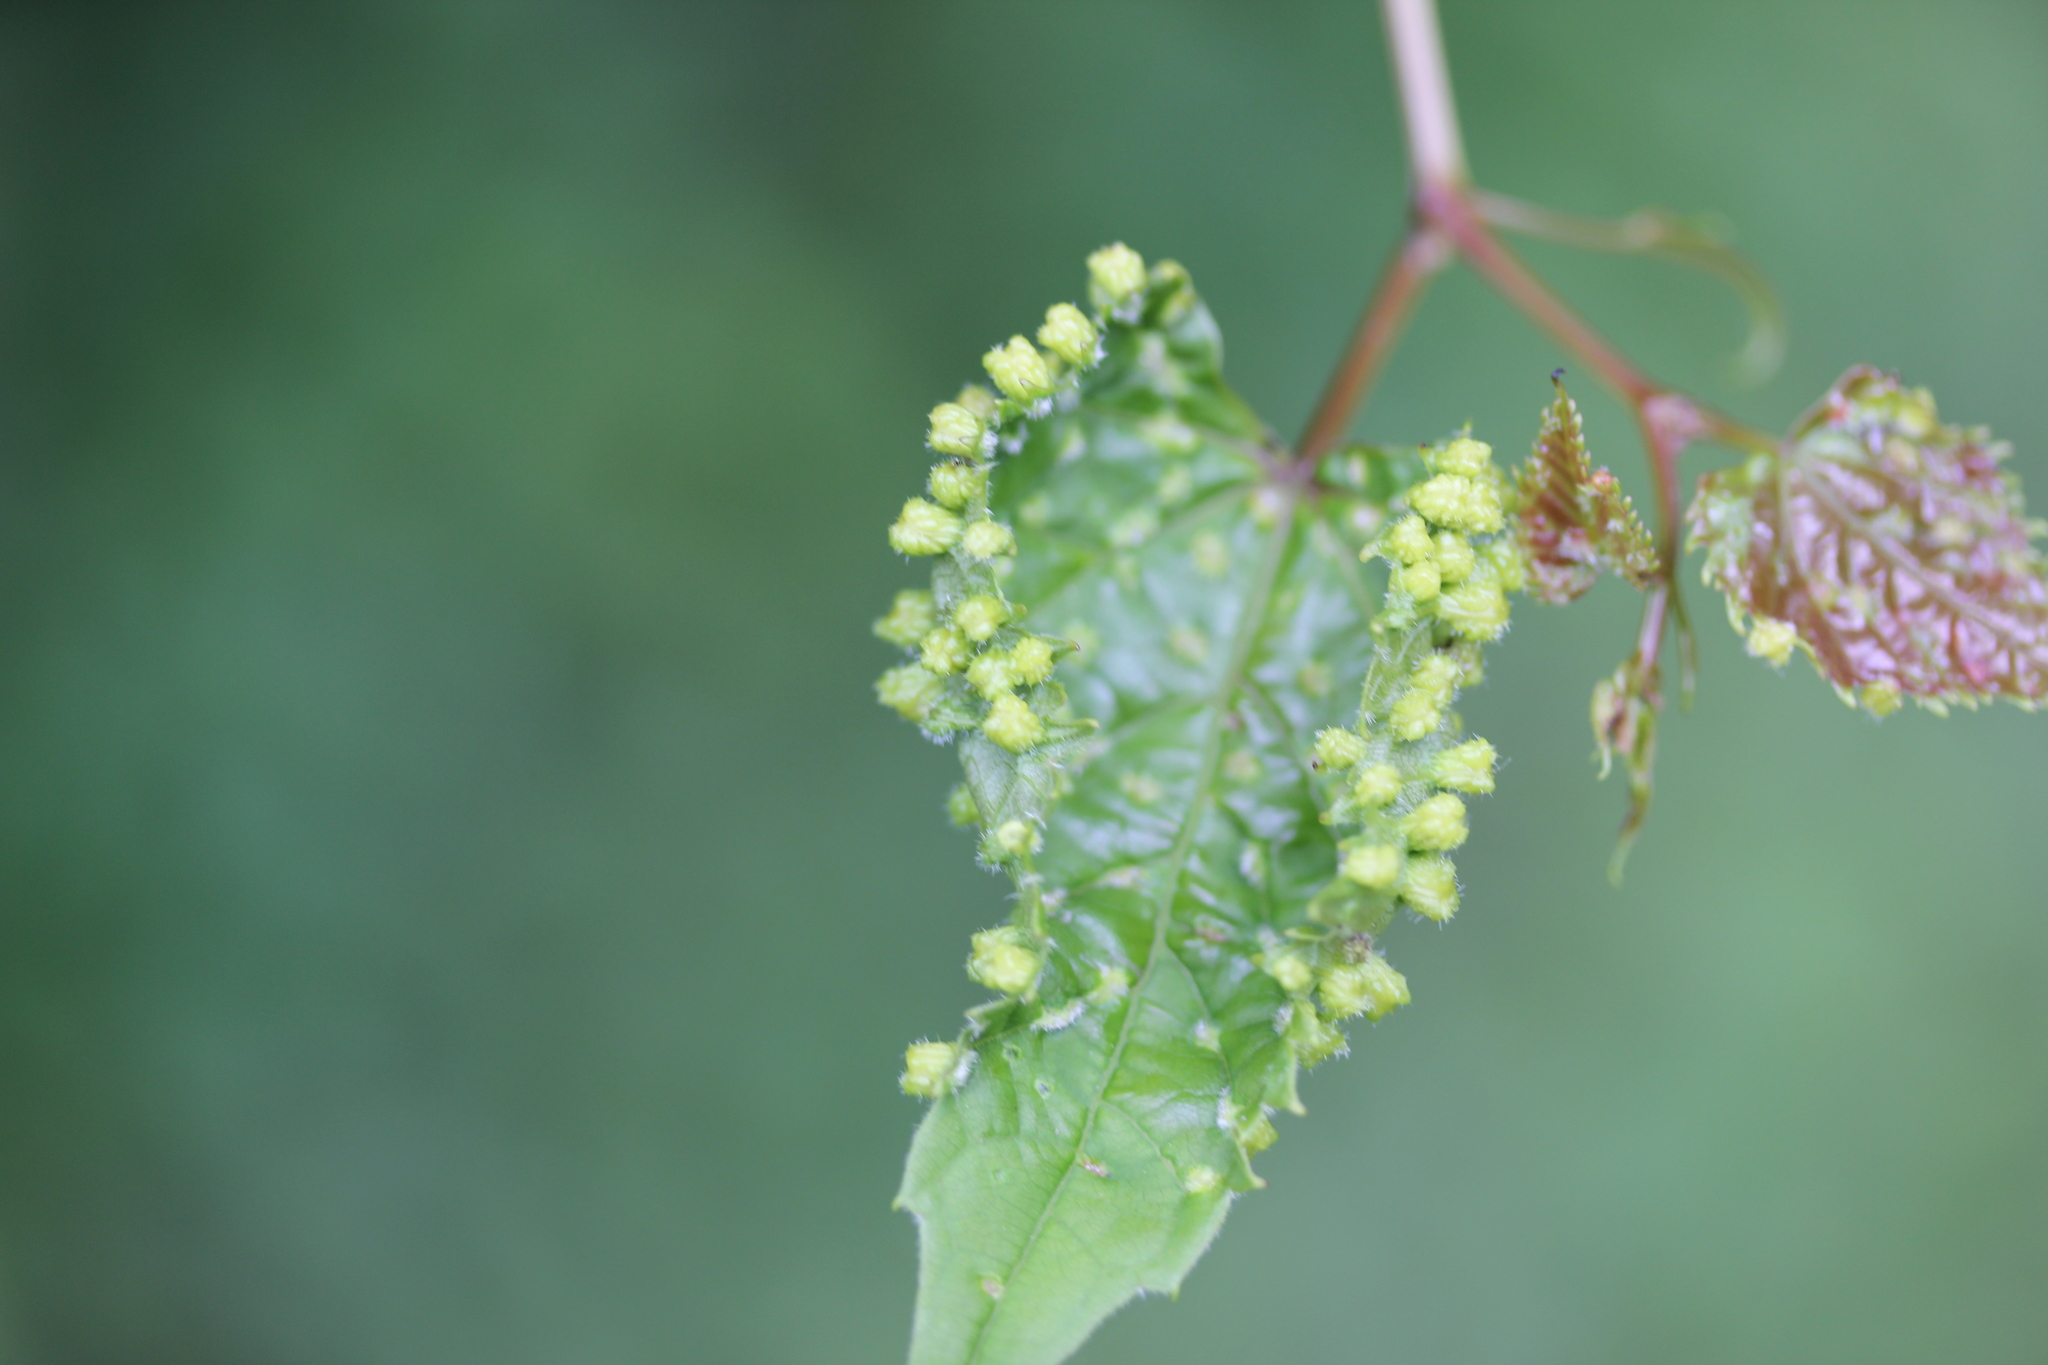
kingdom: Animalia
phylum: Arthropoda
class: Insecta
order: Hemiptera
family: Phylloxeridae
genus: Daktulosphaira
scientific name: Daktulosphaira vitifoliae
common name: Grape phylloxera
